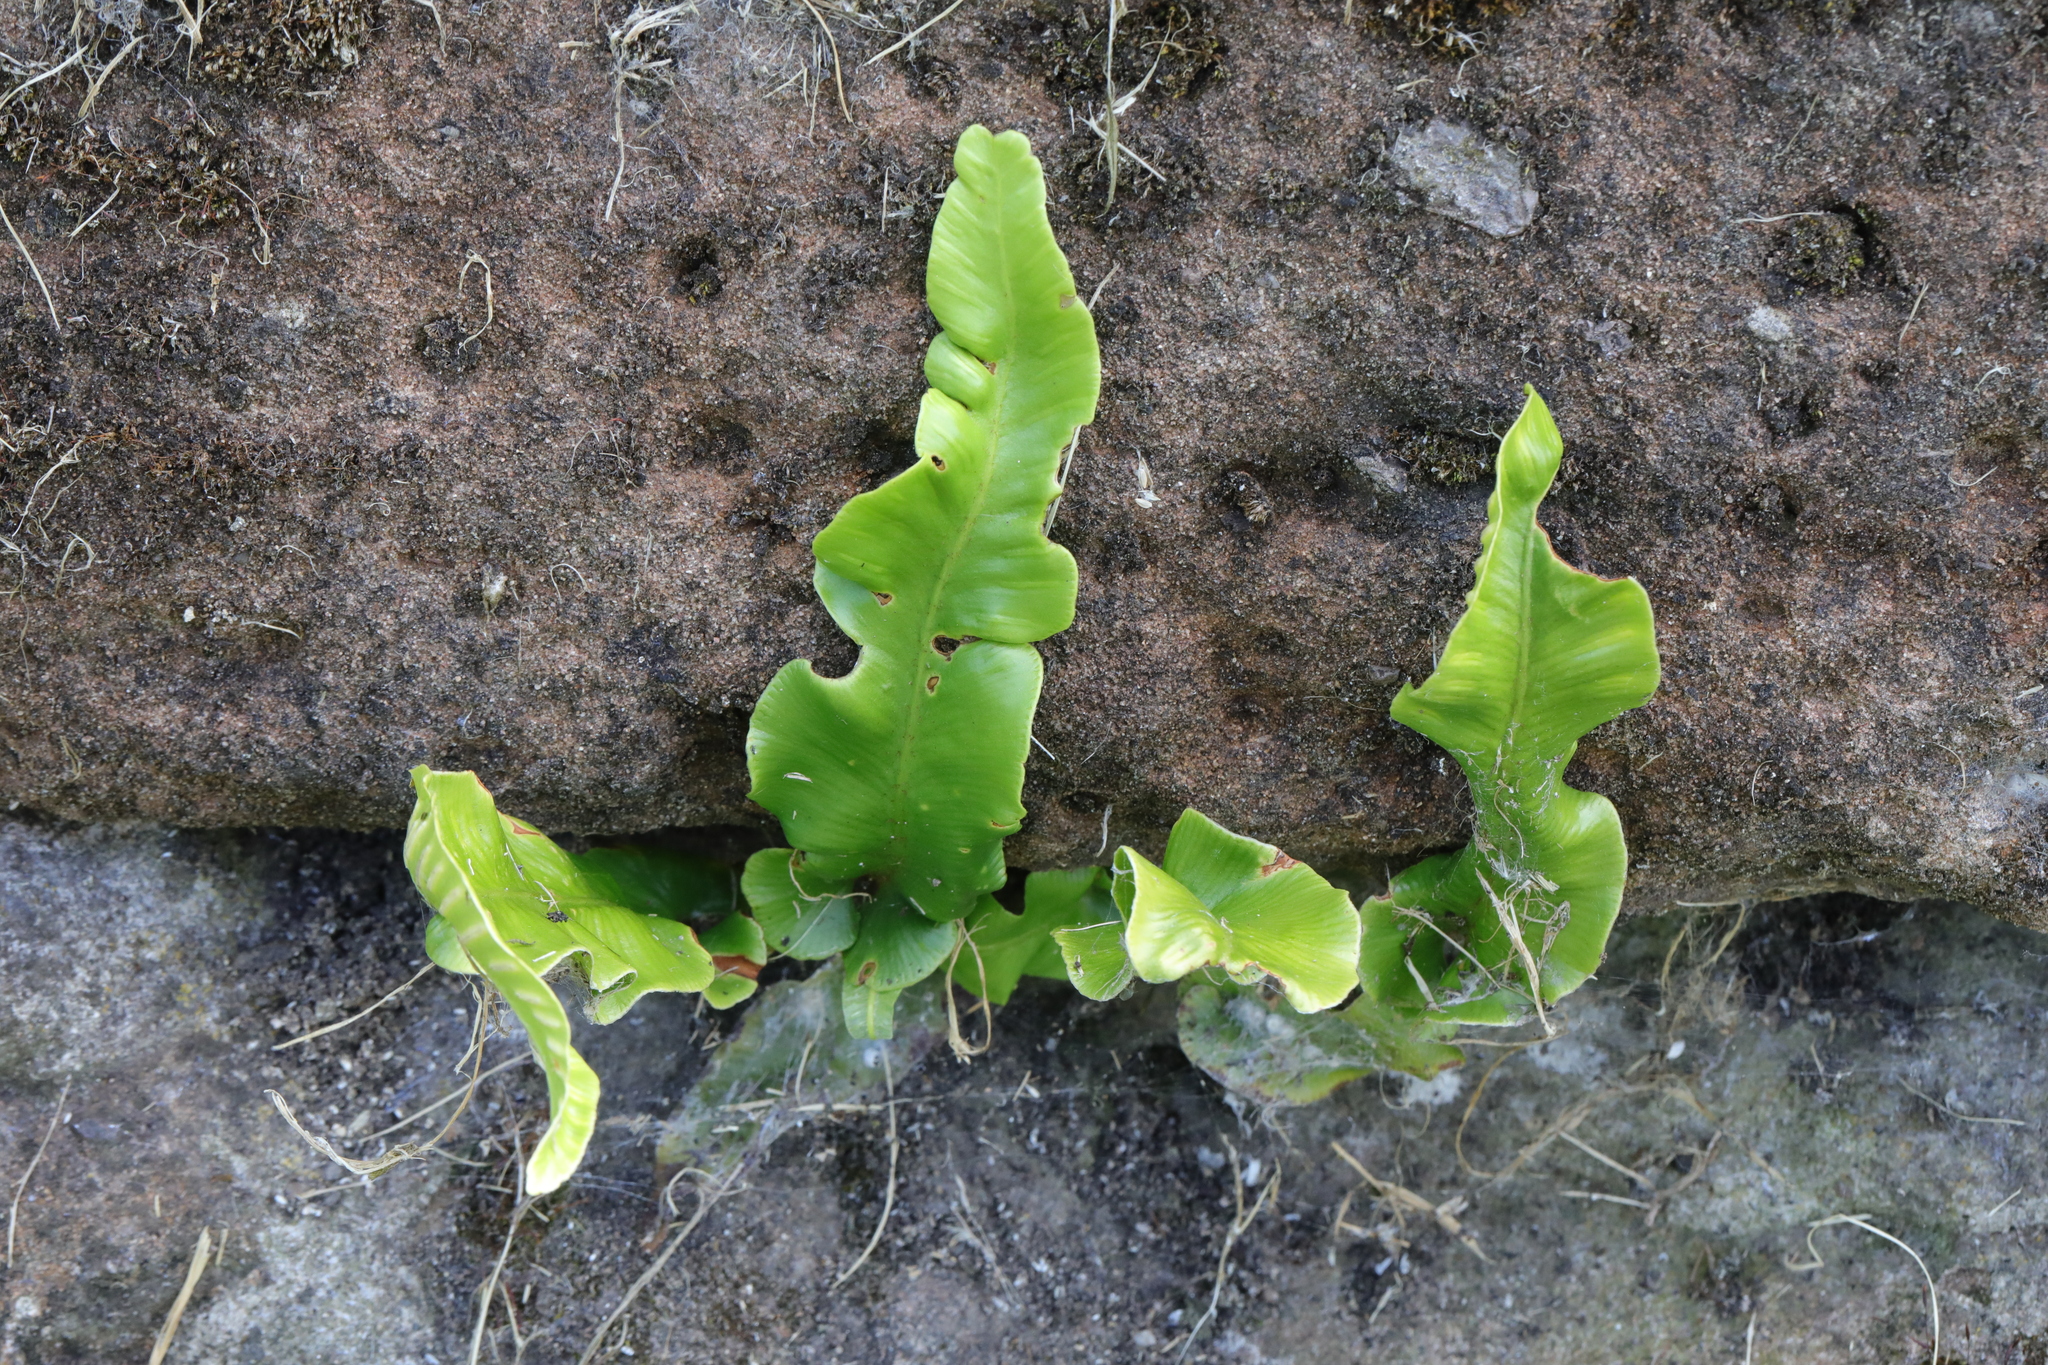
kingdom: Plantae
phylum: Tracheophyta
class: Polypodiopsida
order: Polypodiales
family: Aspleniaceae
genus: Asplenium
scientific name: Asplenium scolopendrium
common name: Hart's-tongue fern
